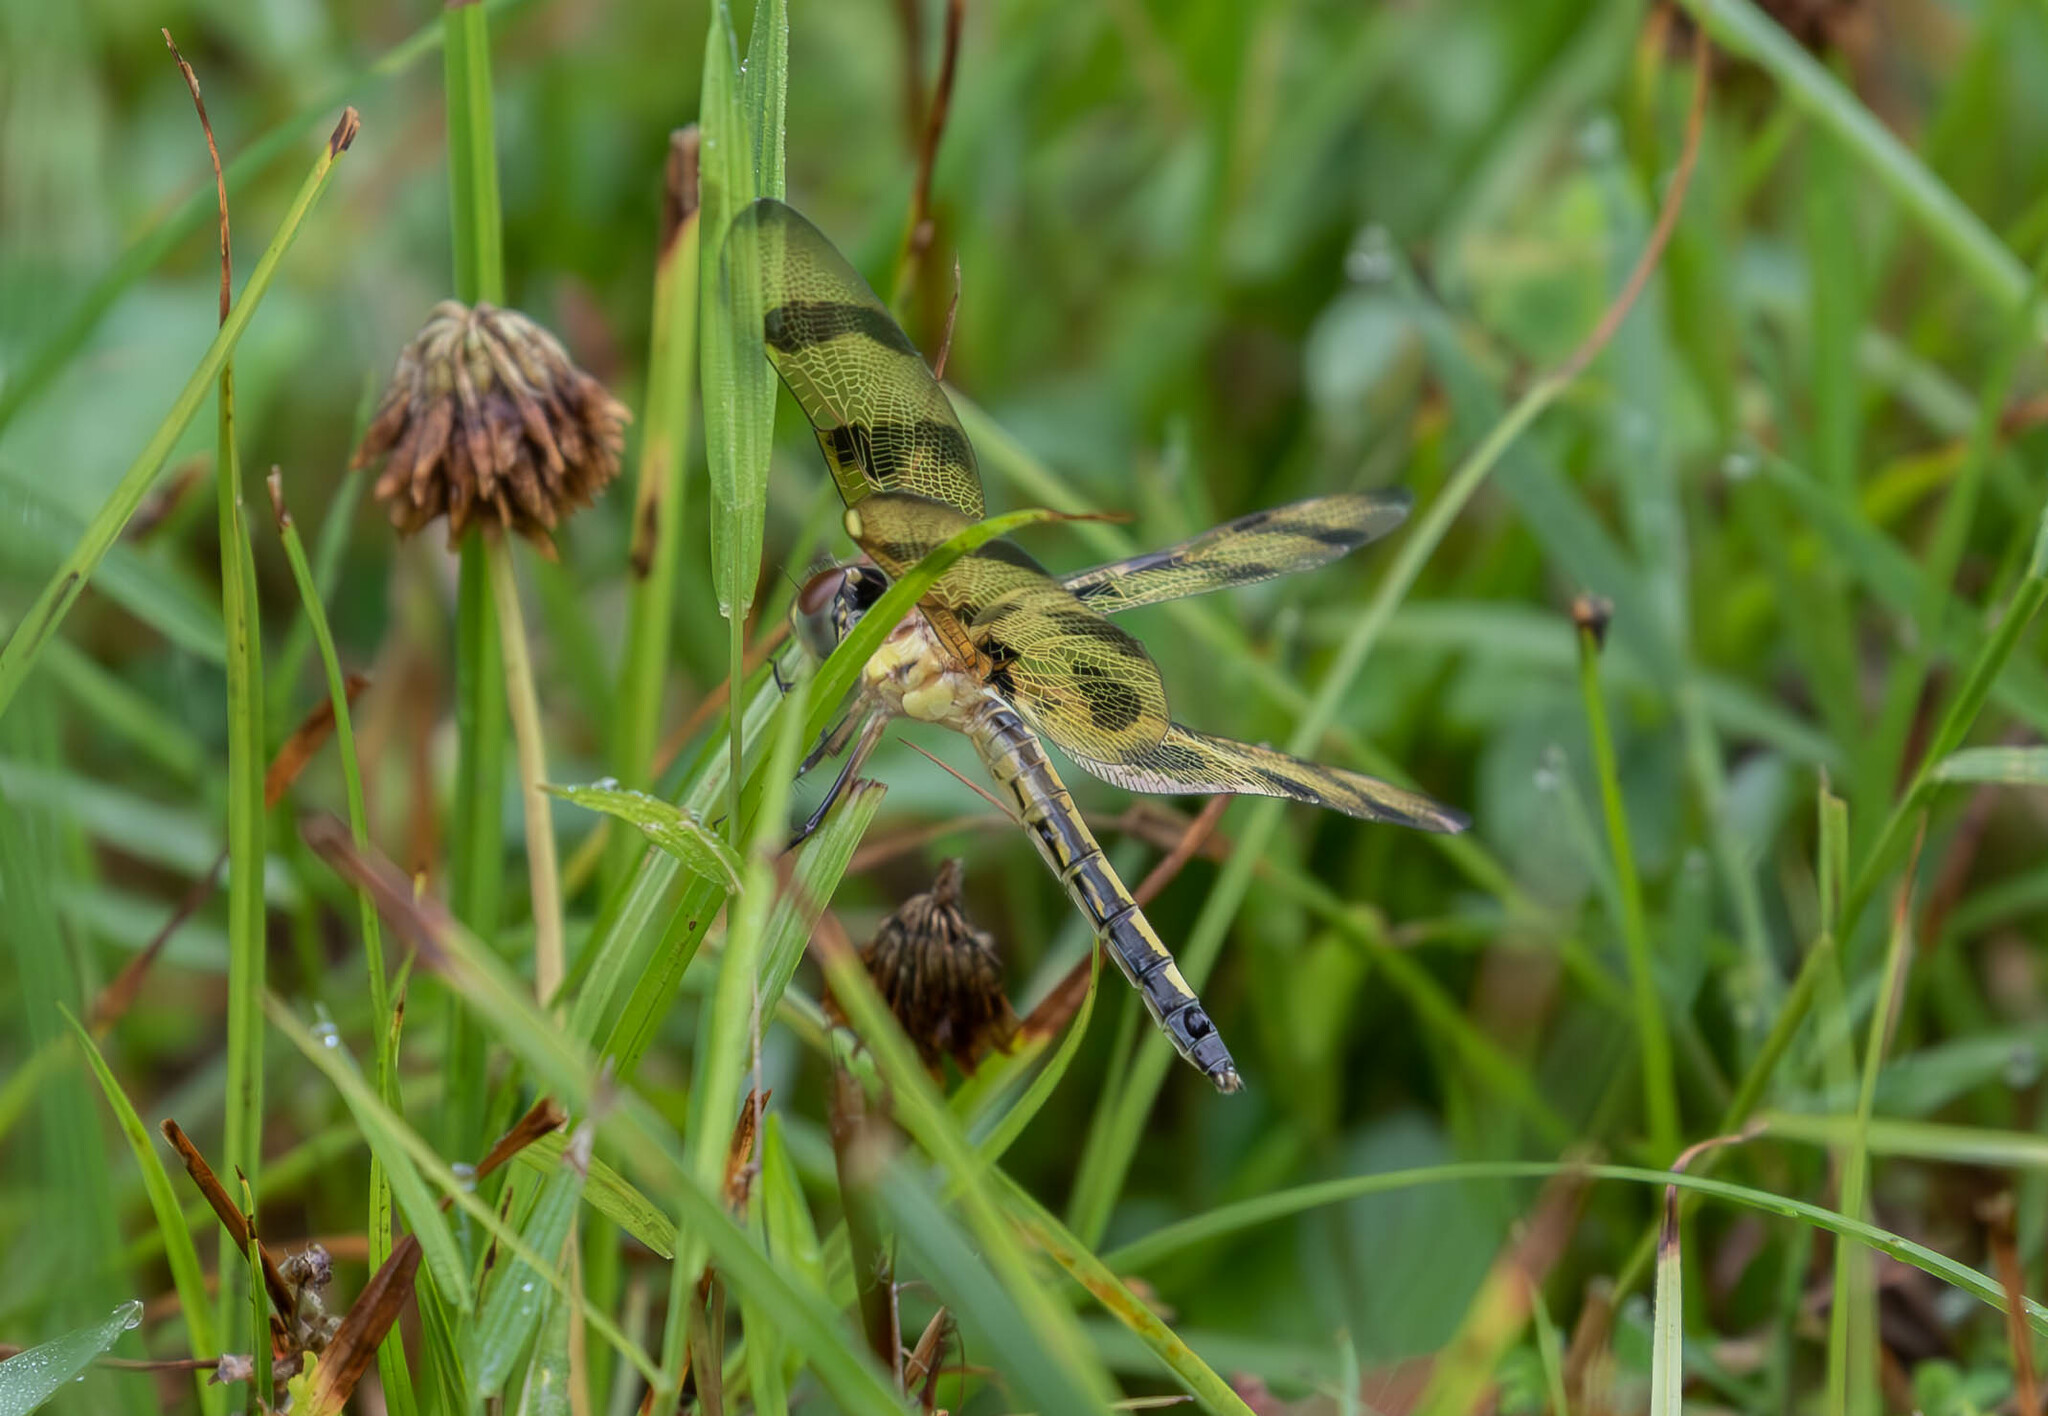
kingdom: Animalia
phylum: Arthropoda
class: Insecta
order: Odonata
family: Libellulidae
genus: Celithemis
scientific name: Celithemis eponina
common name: Halloween pennant
